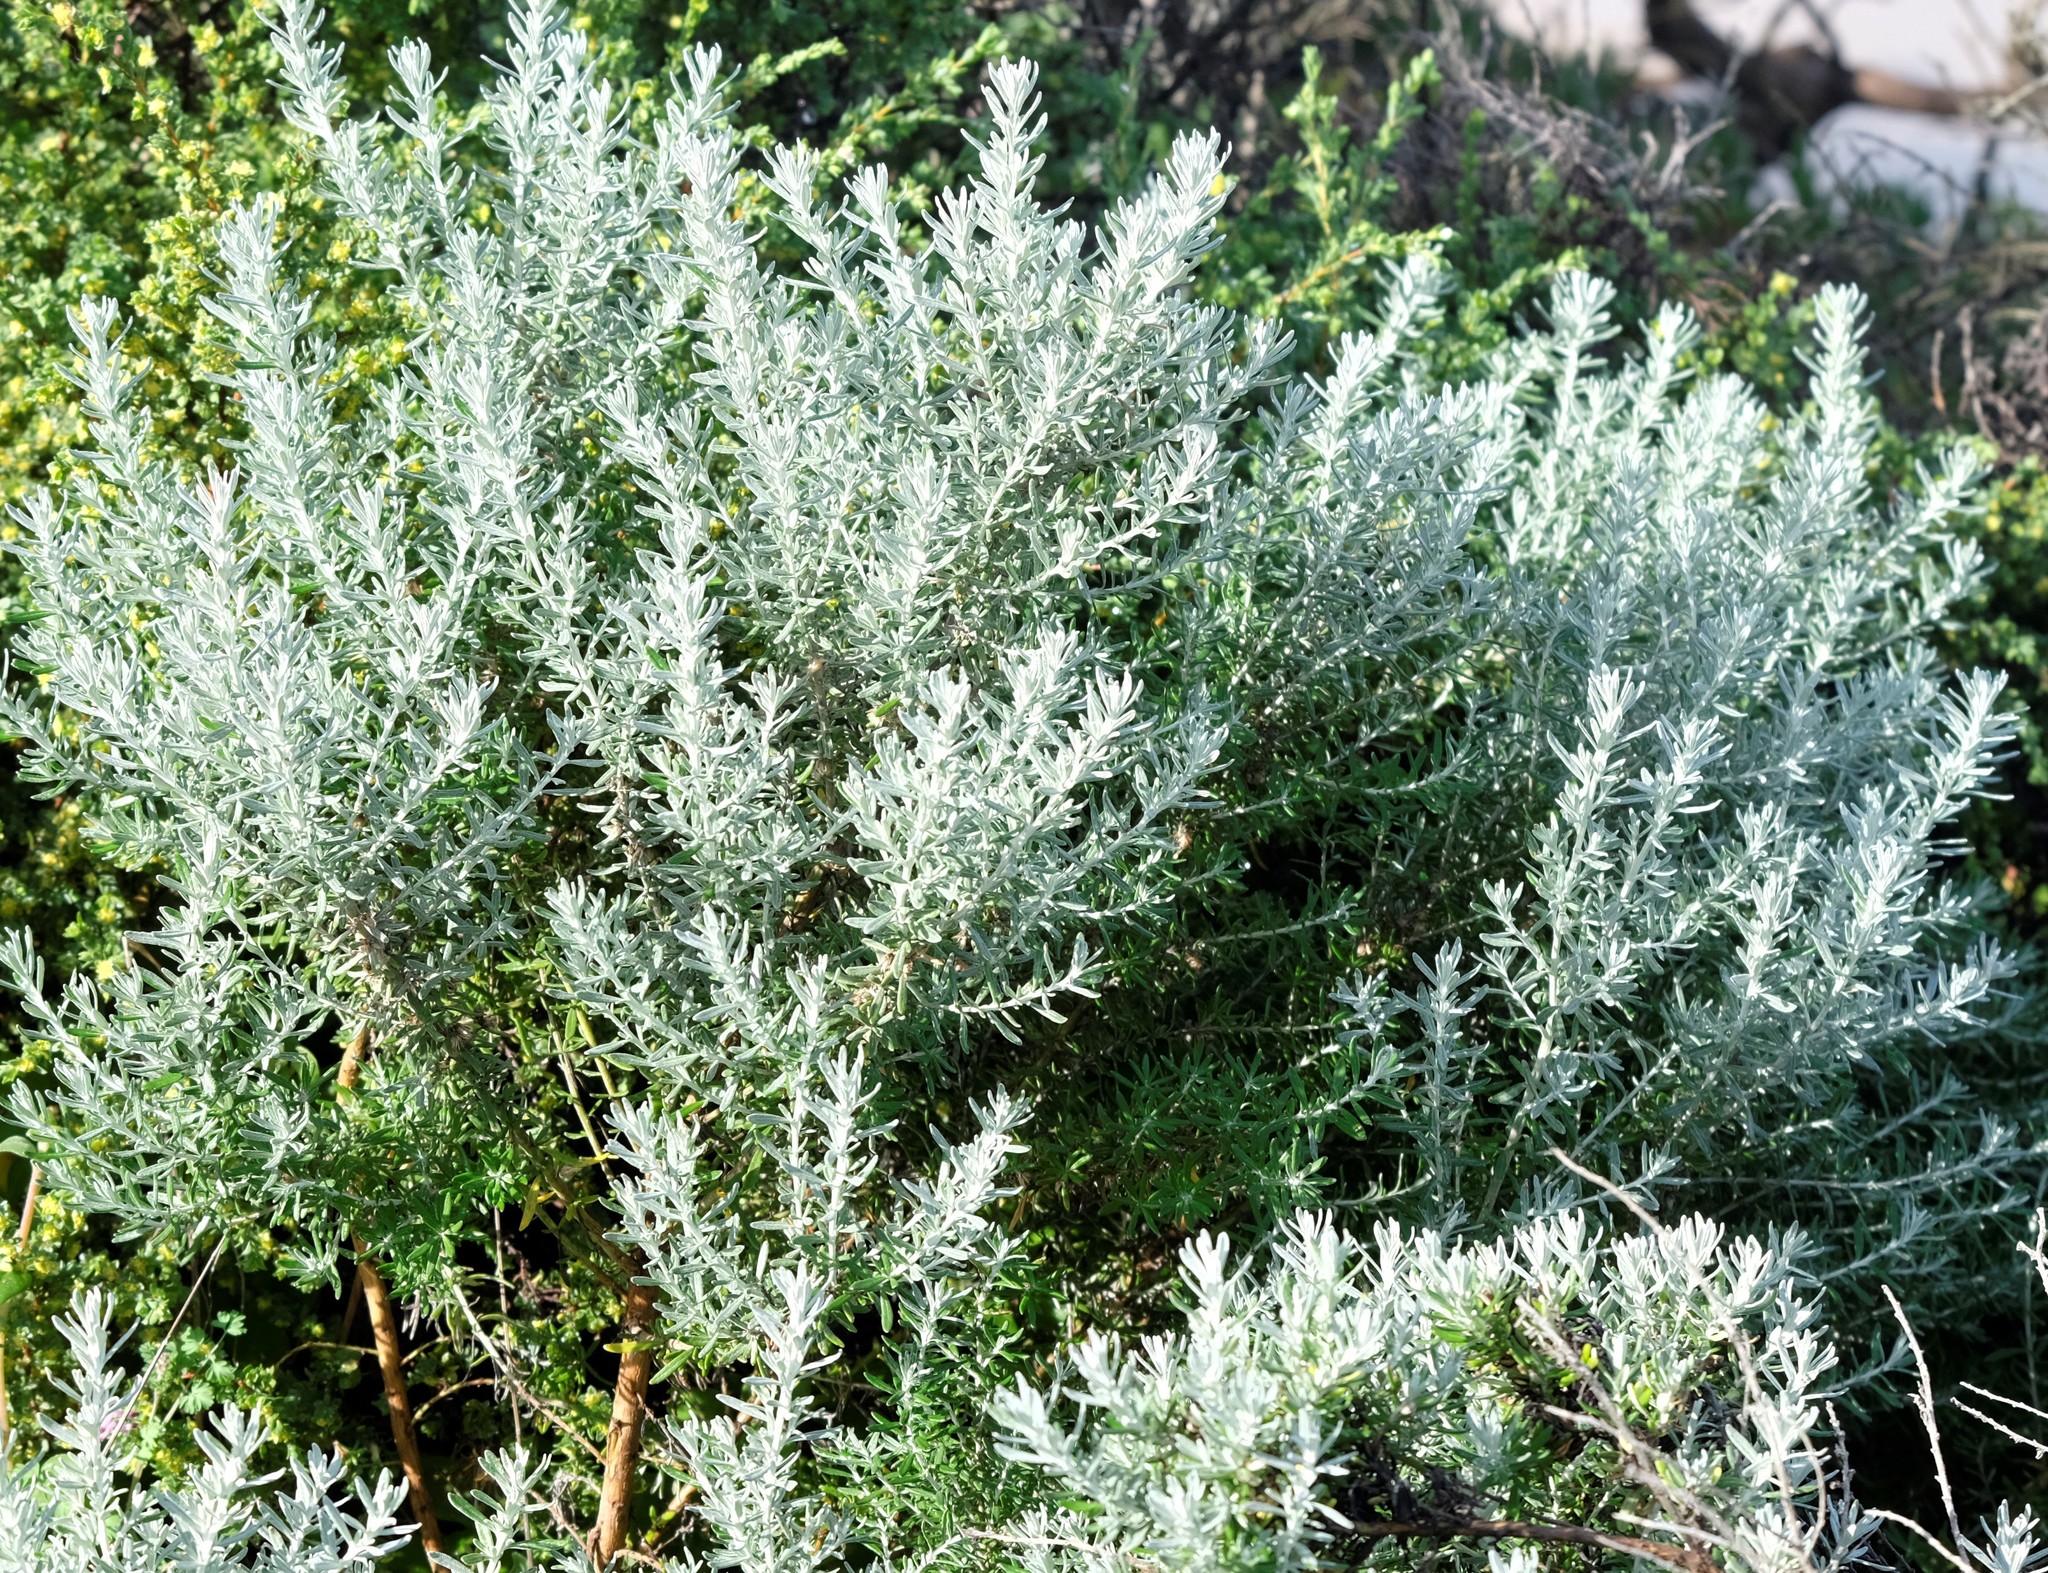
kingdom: Plantae
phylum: Tracheophyta
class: Magnoliopsida
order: Asterales
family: Asteraceae
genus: Olearia
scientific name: Olearia axillaris
